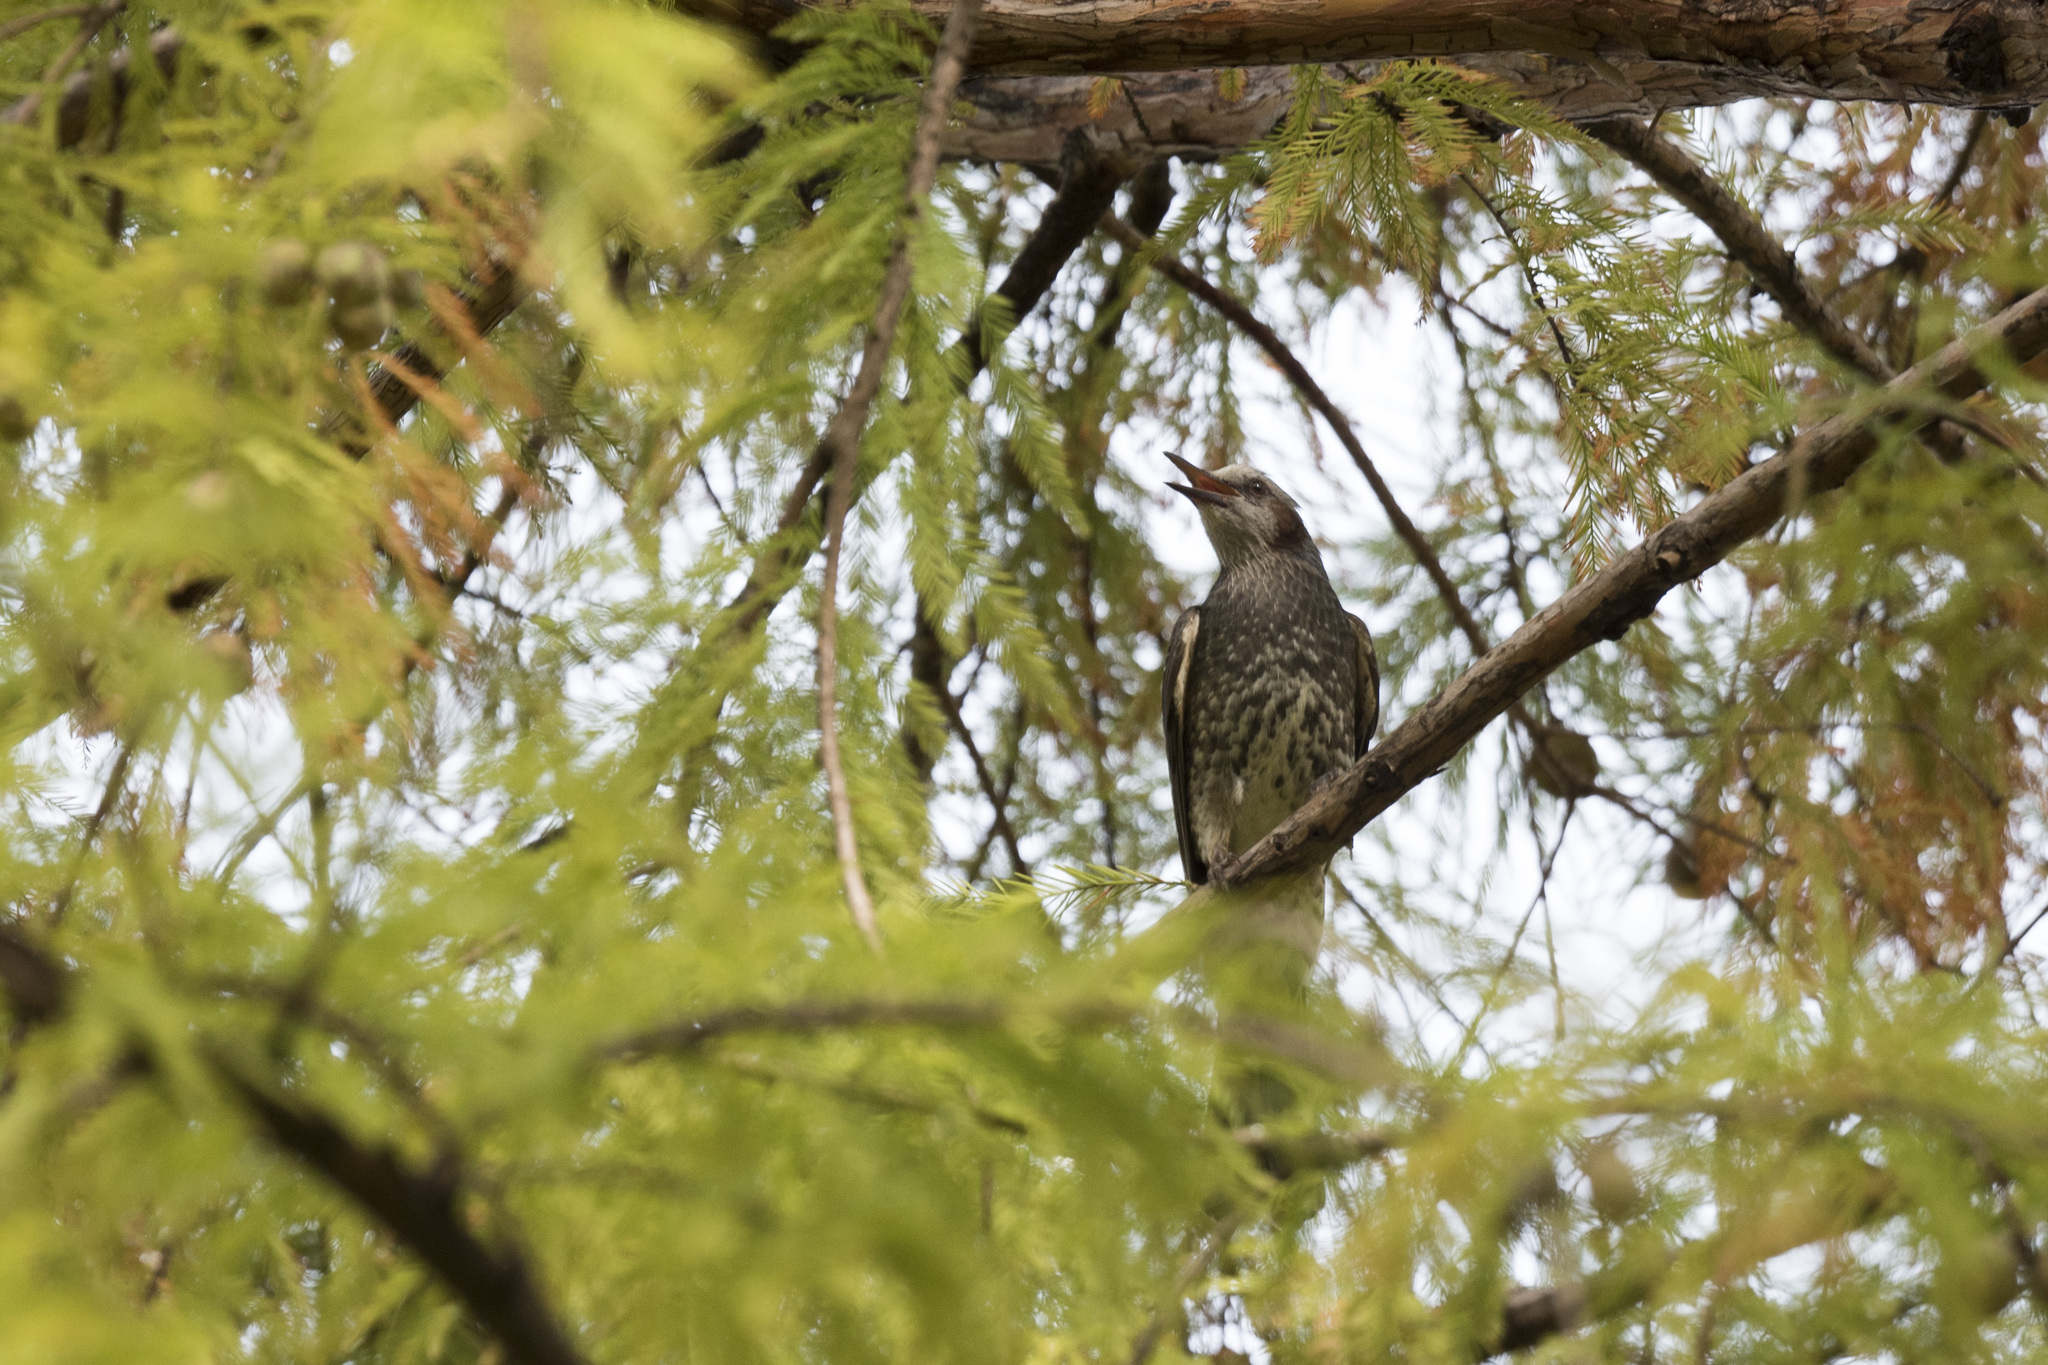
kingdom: Animalia
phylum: Chordata
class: Aves
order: Passeriformes
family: Pycnonotidae
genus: Hypsipetes
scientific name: Hypsipetes amaurotis
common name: Brown-eared bulbul
